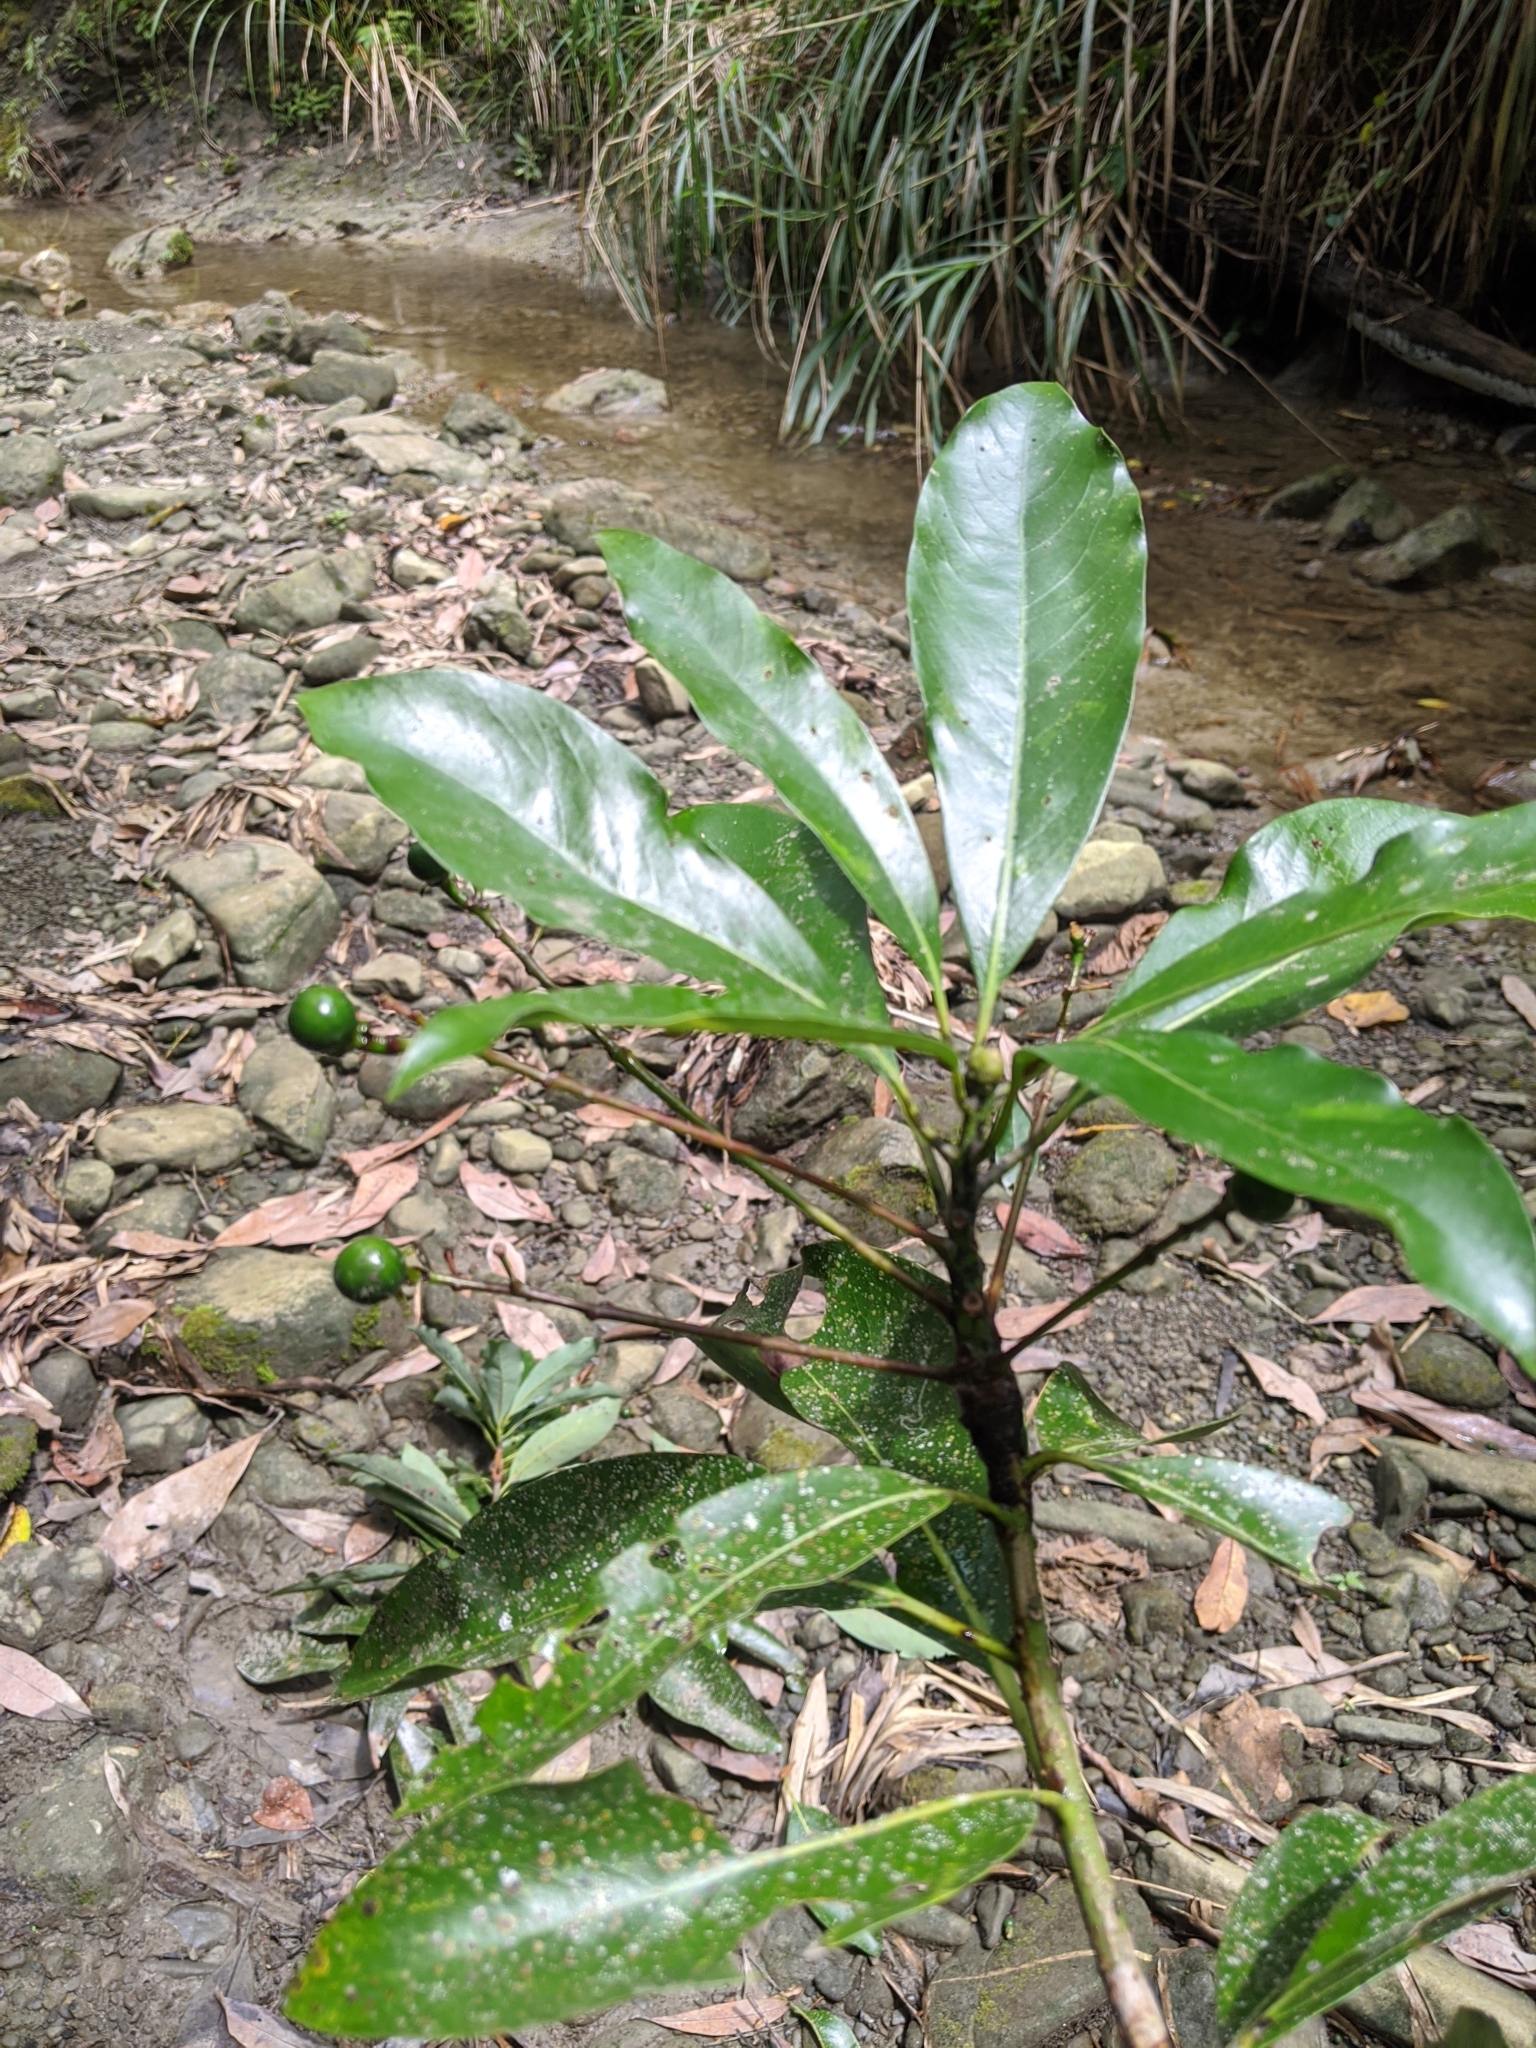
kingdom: Plantae
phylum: Tracheophyta
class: Magnoliopsida
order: Laurales
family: Lauraceae
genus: Machilus
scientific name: Machilus japonica
